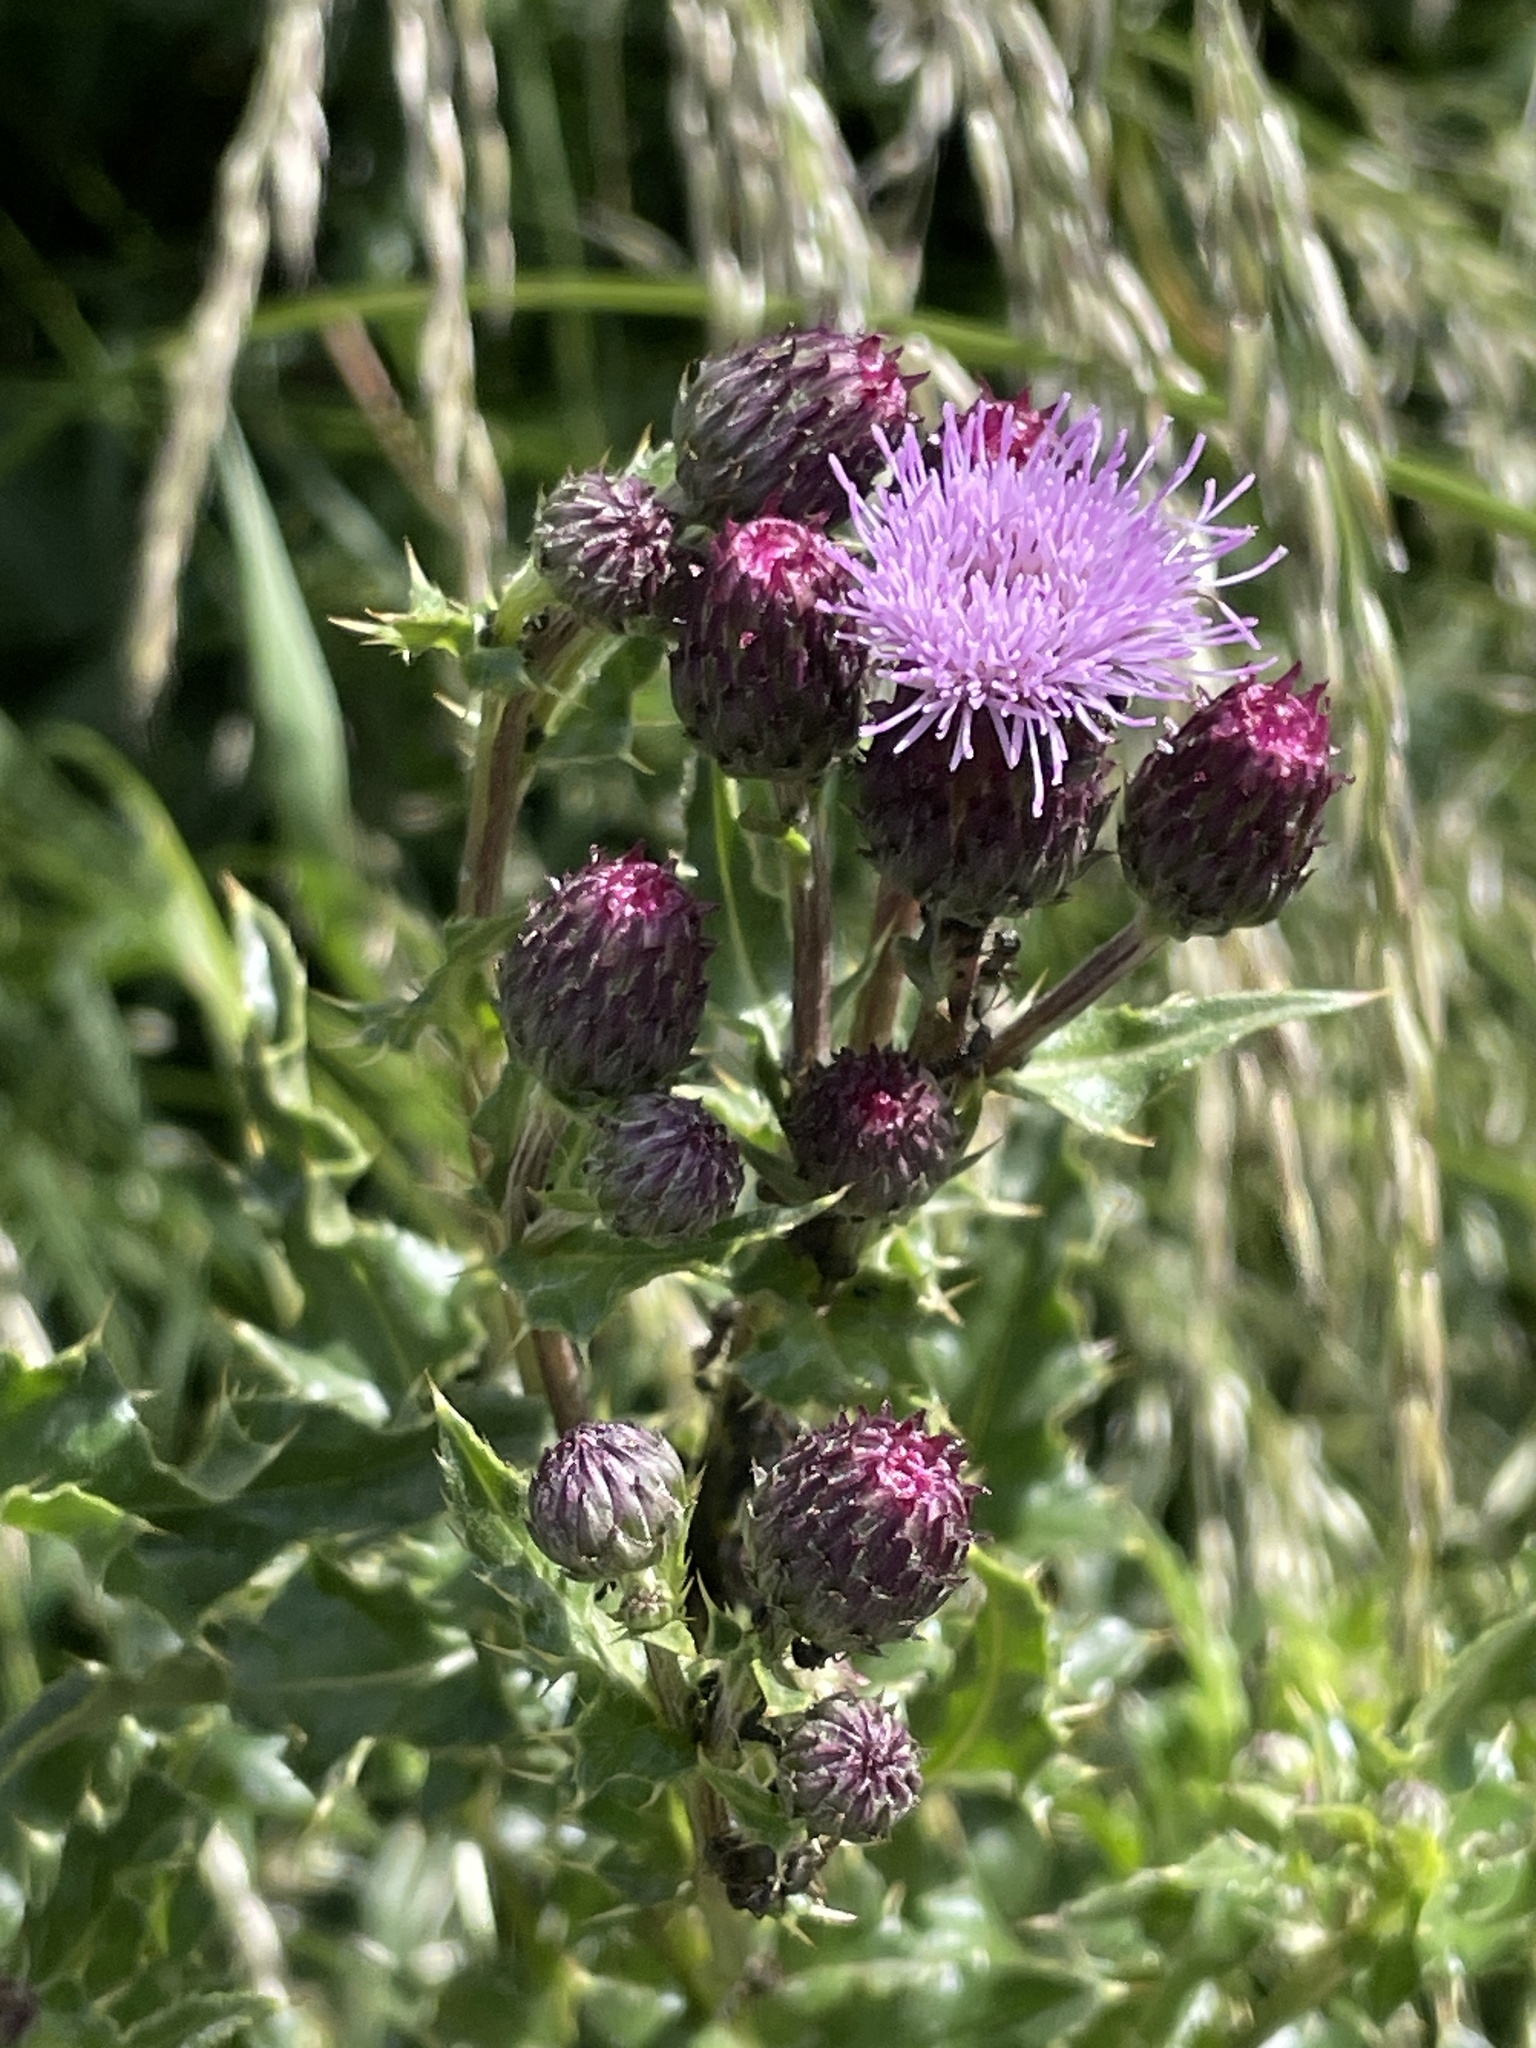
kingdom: Plantae
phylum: Tracheophyta
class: Magnoliopsida
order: Asterales
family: Asteraceae
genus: Cirsium
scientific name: Cirsium arvense
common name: Creeping thistle
